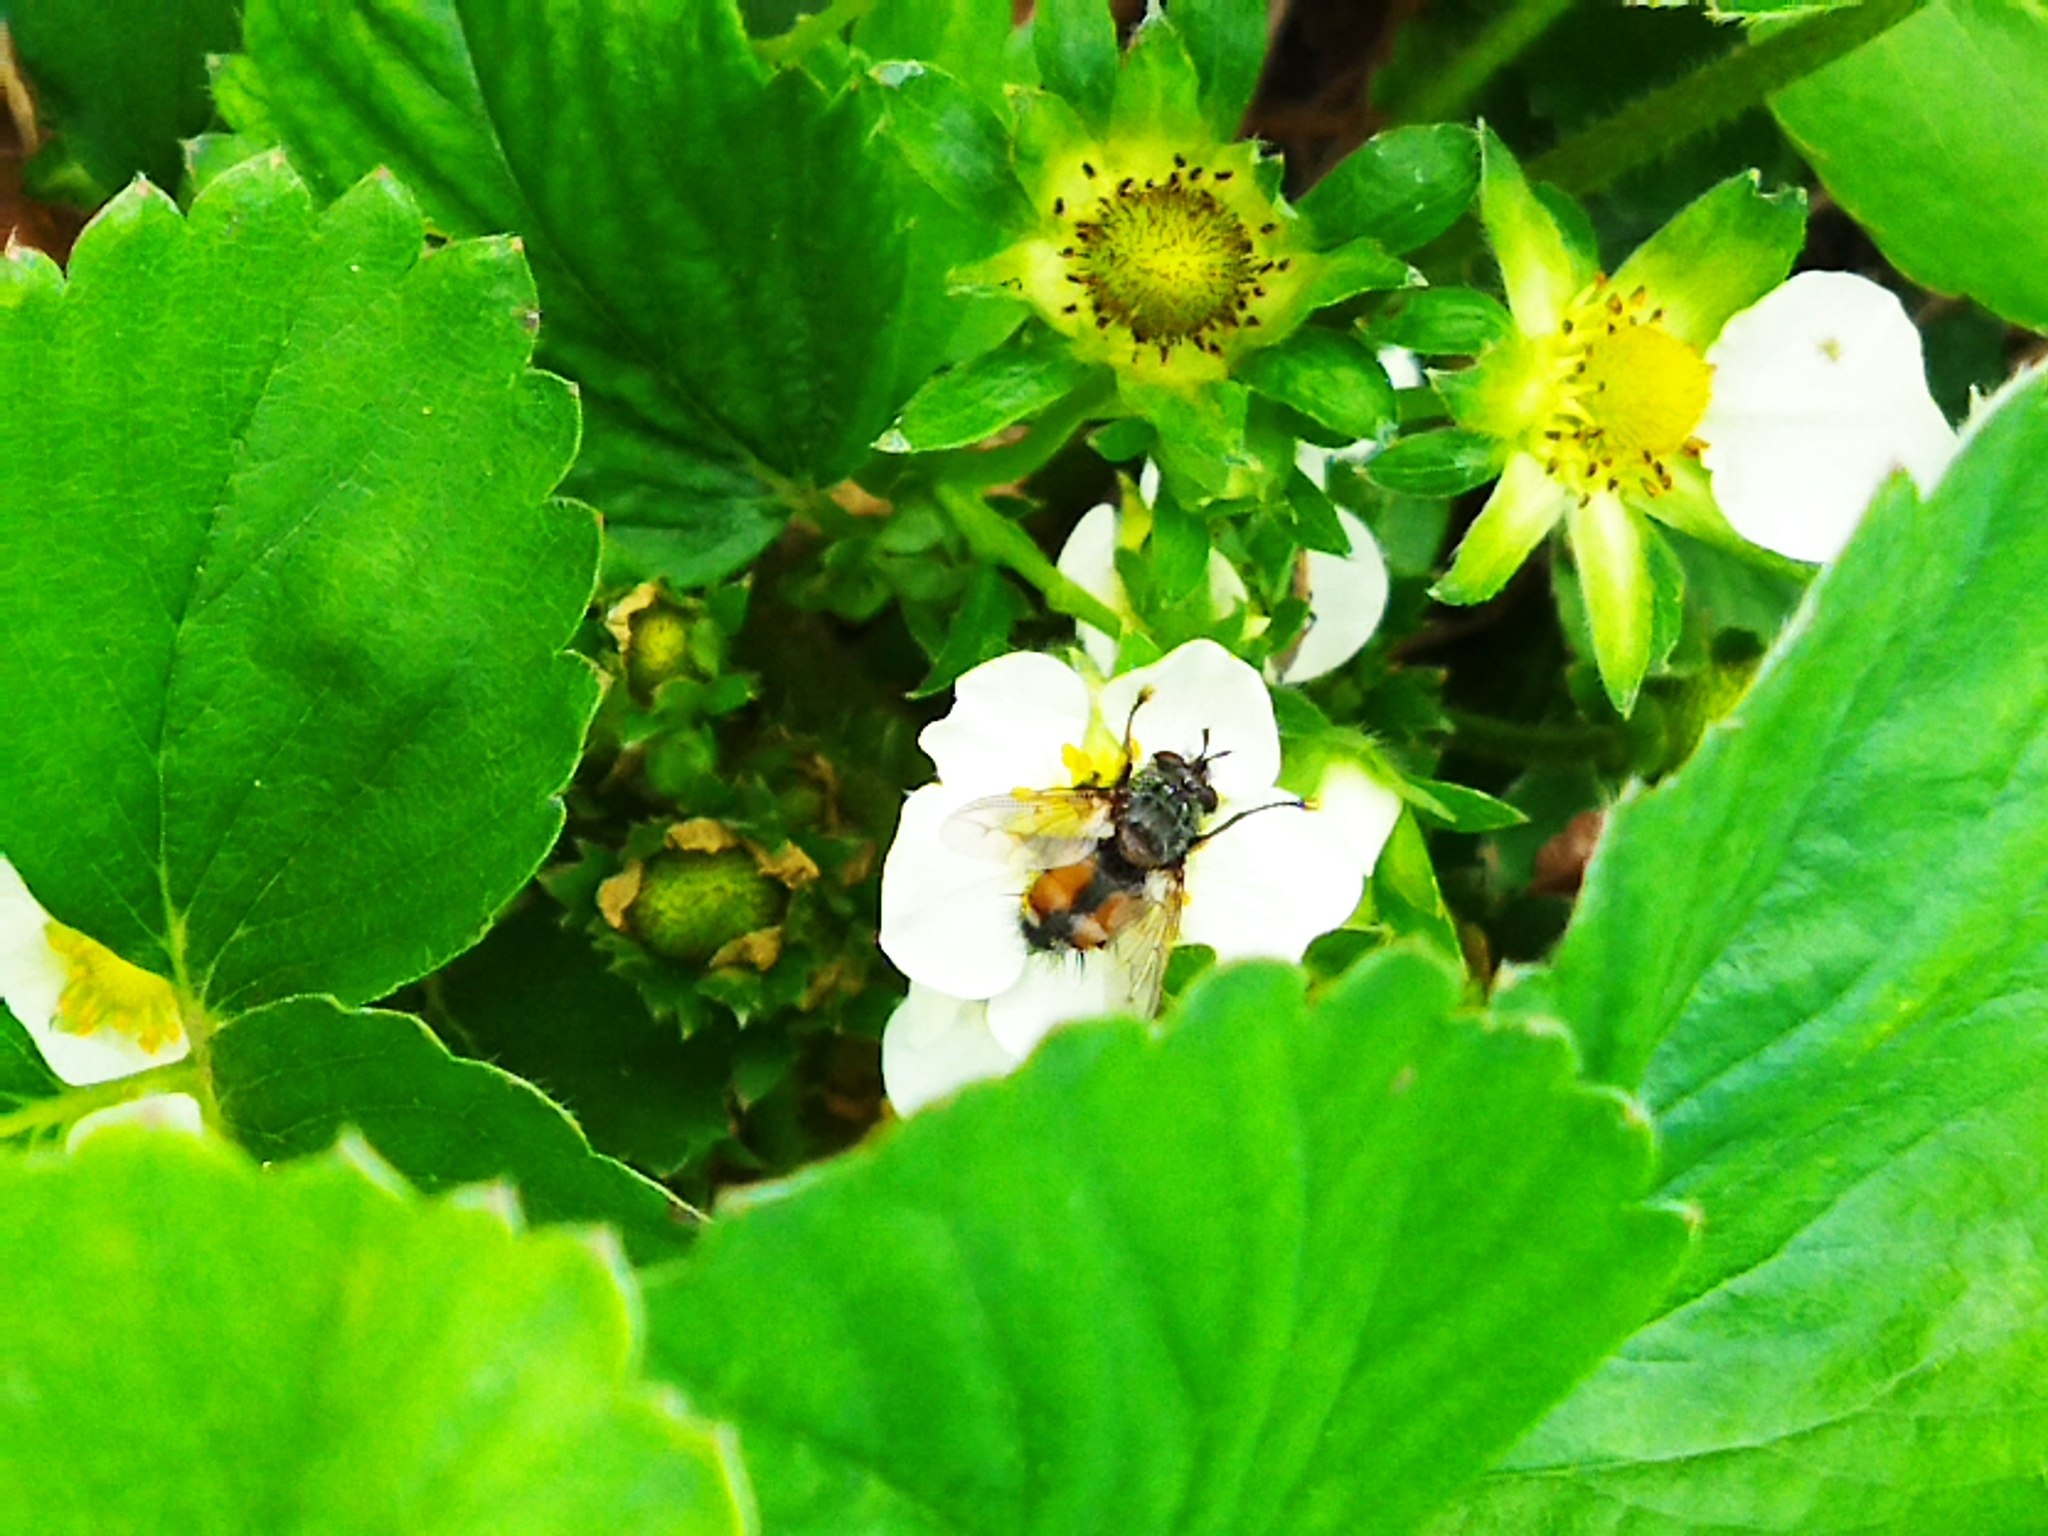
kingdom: Animalia
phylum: Arthropoda
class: Insecta
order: Diptera
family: Tachinidae
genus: Tachina
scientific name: Tachina magnicornis
